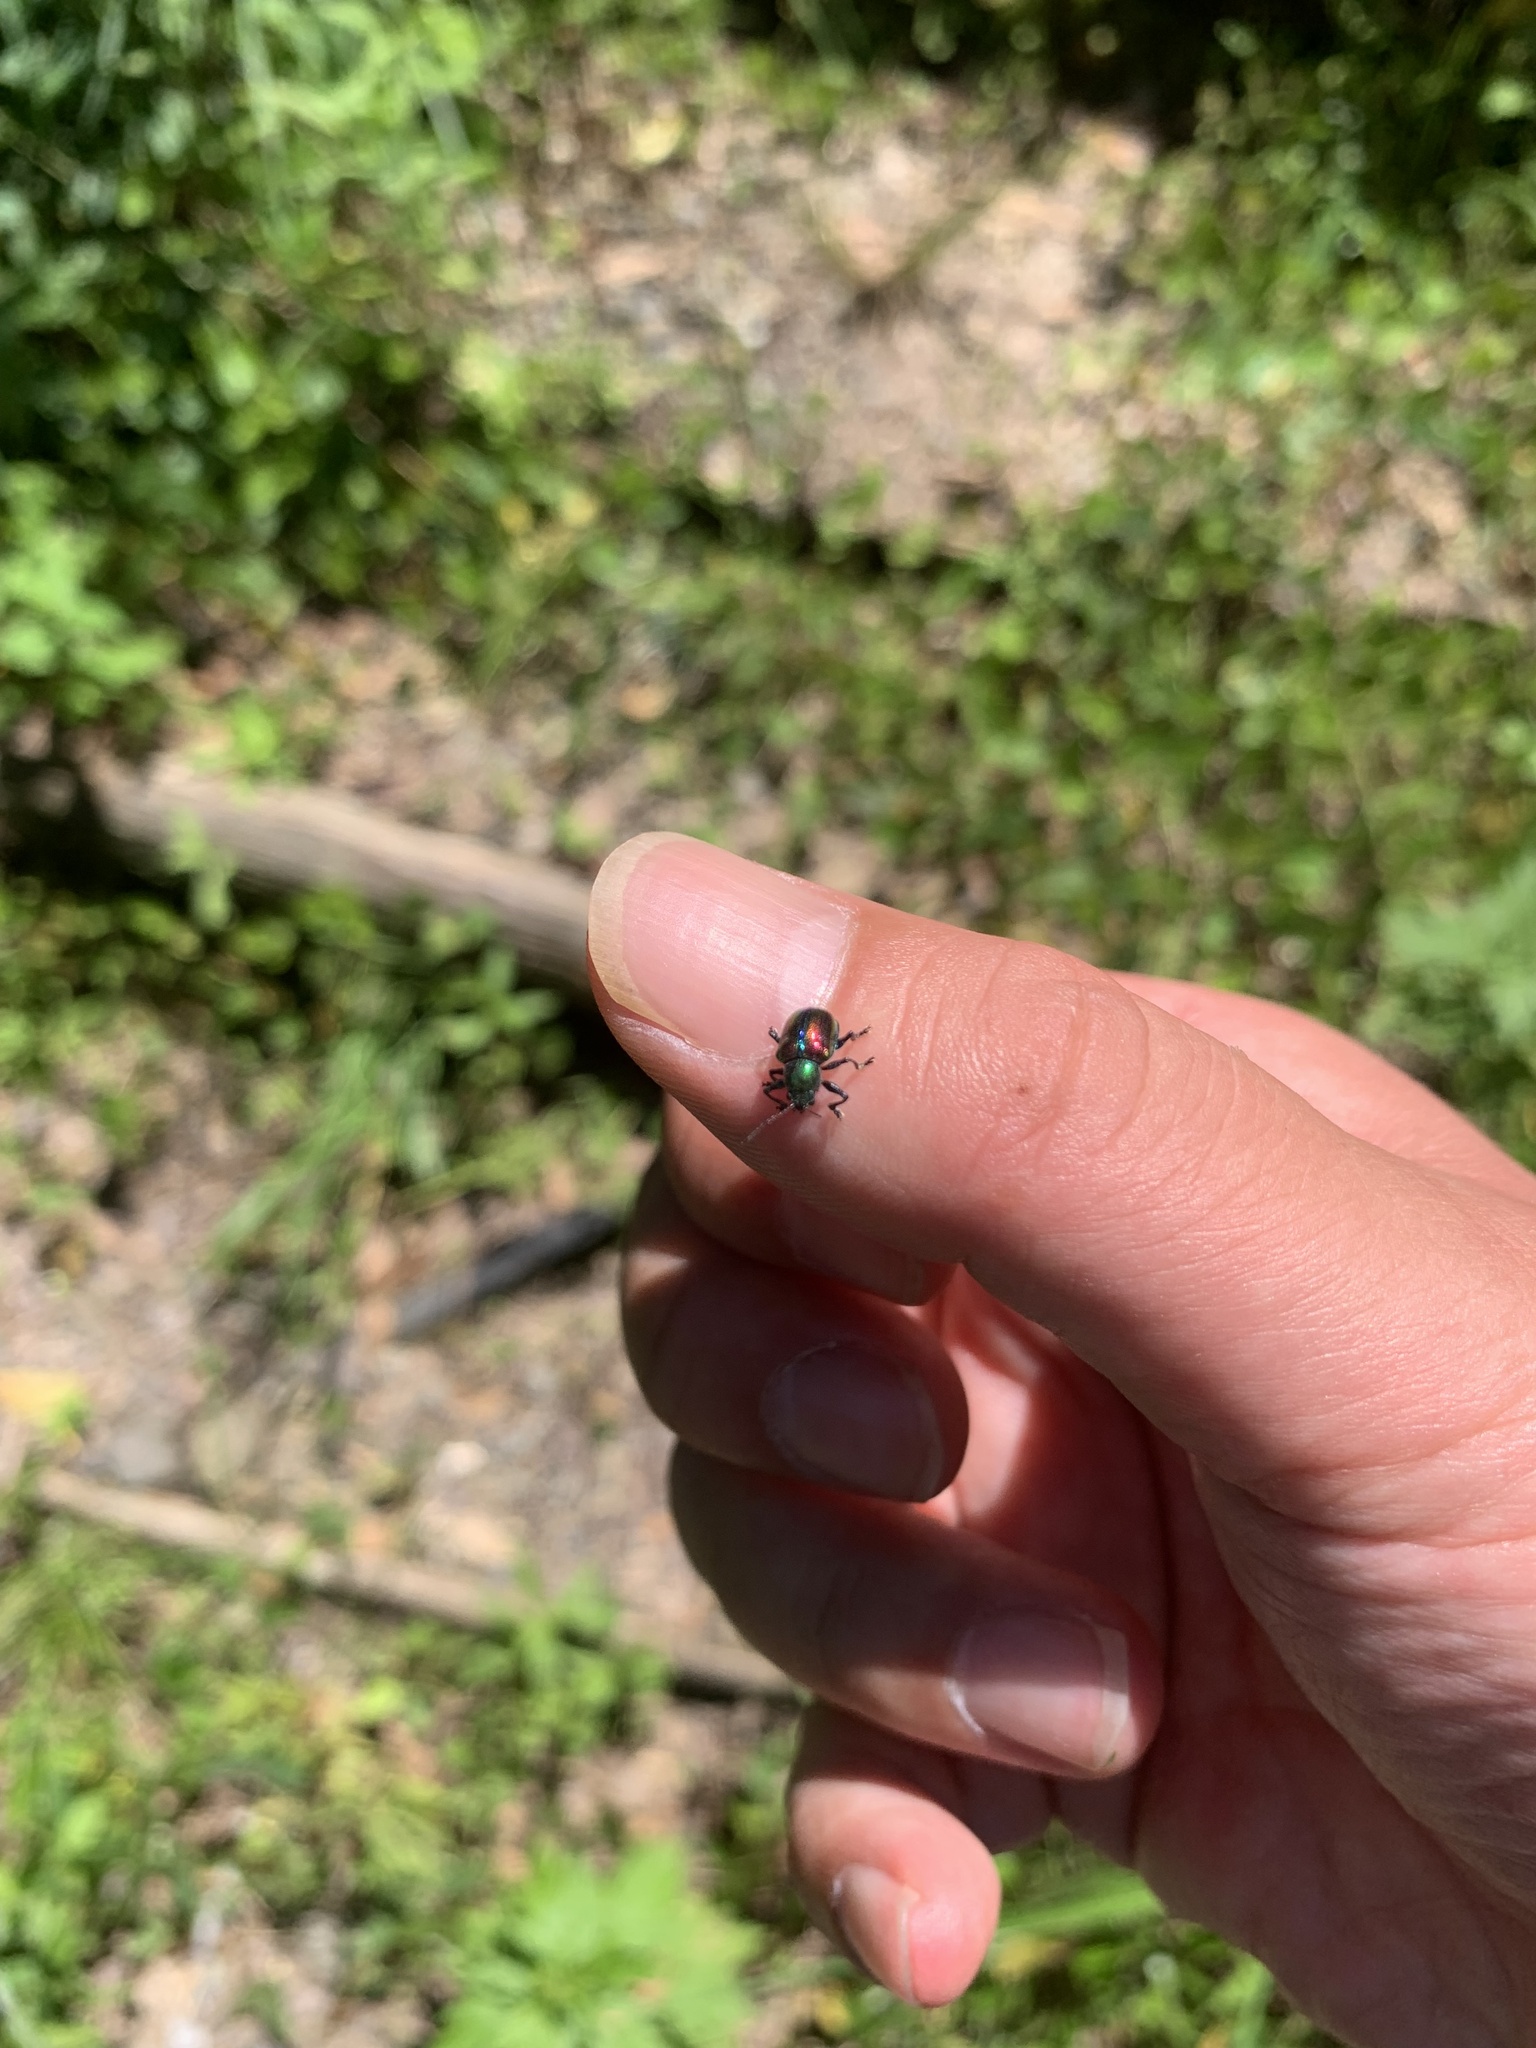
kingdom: Animalia
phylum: Arthropoda
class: Insecta
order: Coleoptera
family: Chrysomelidae
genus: Acrothinium
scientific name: Acrothinium gaschkevitchii
